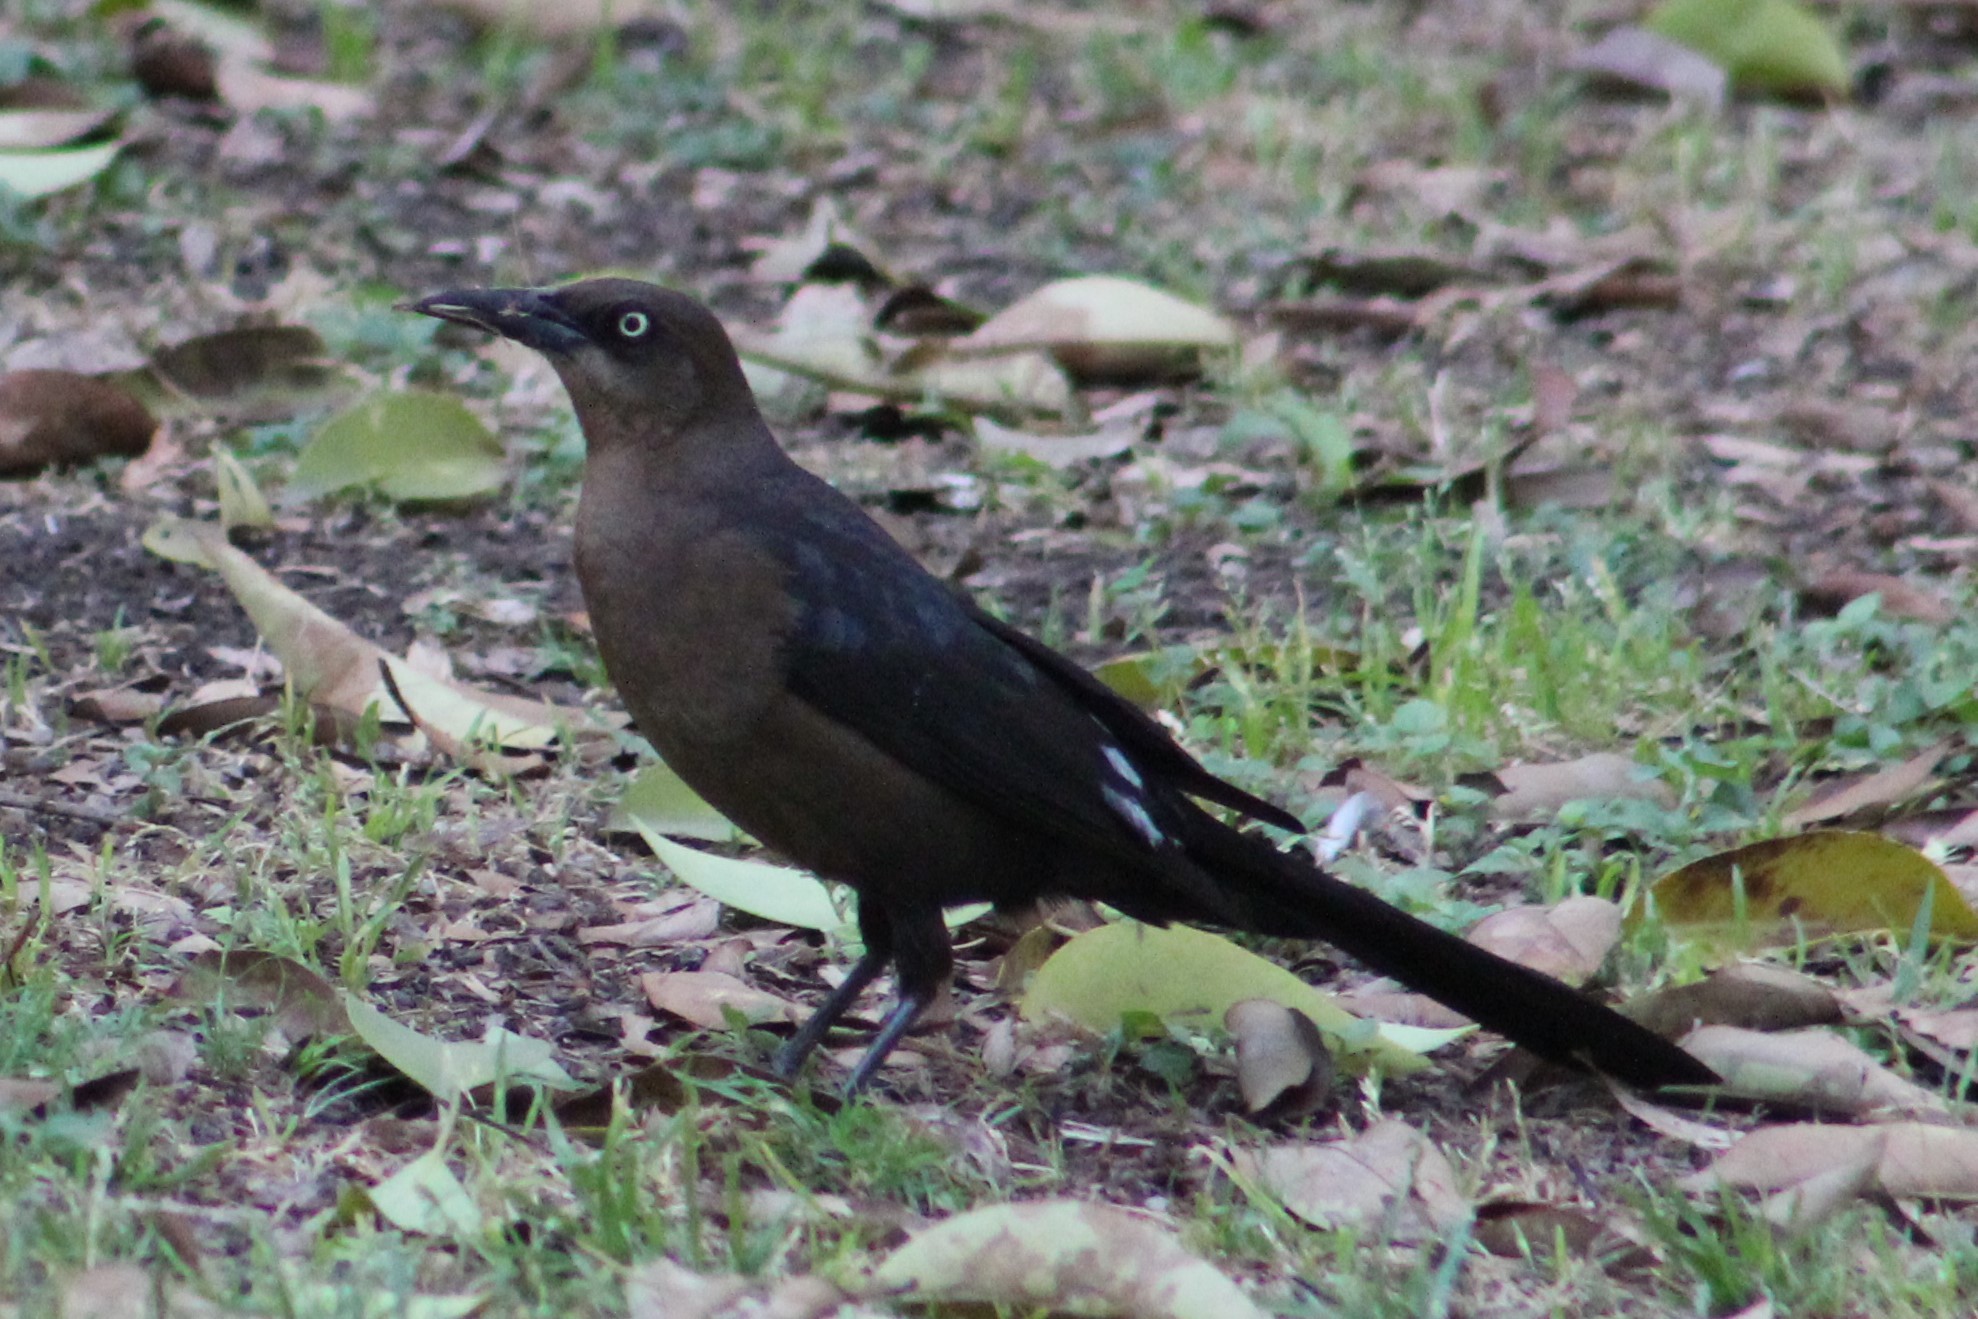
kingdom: Animalia
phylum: Chordata
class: Aves
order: Passeriformes
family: Icteridae
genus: Quiscalus
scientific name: Quiscalus mexicanus
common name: Great-tailed grackle
